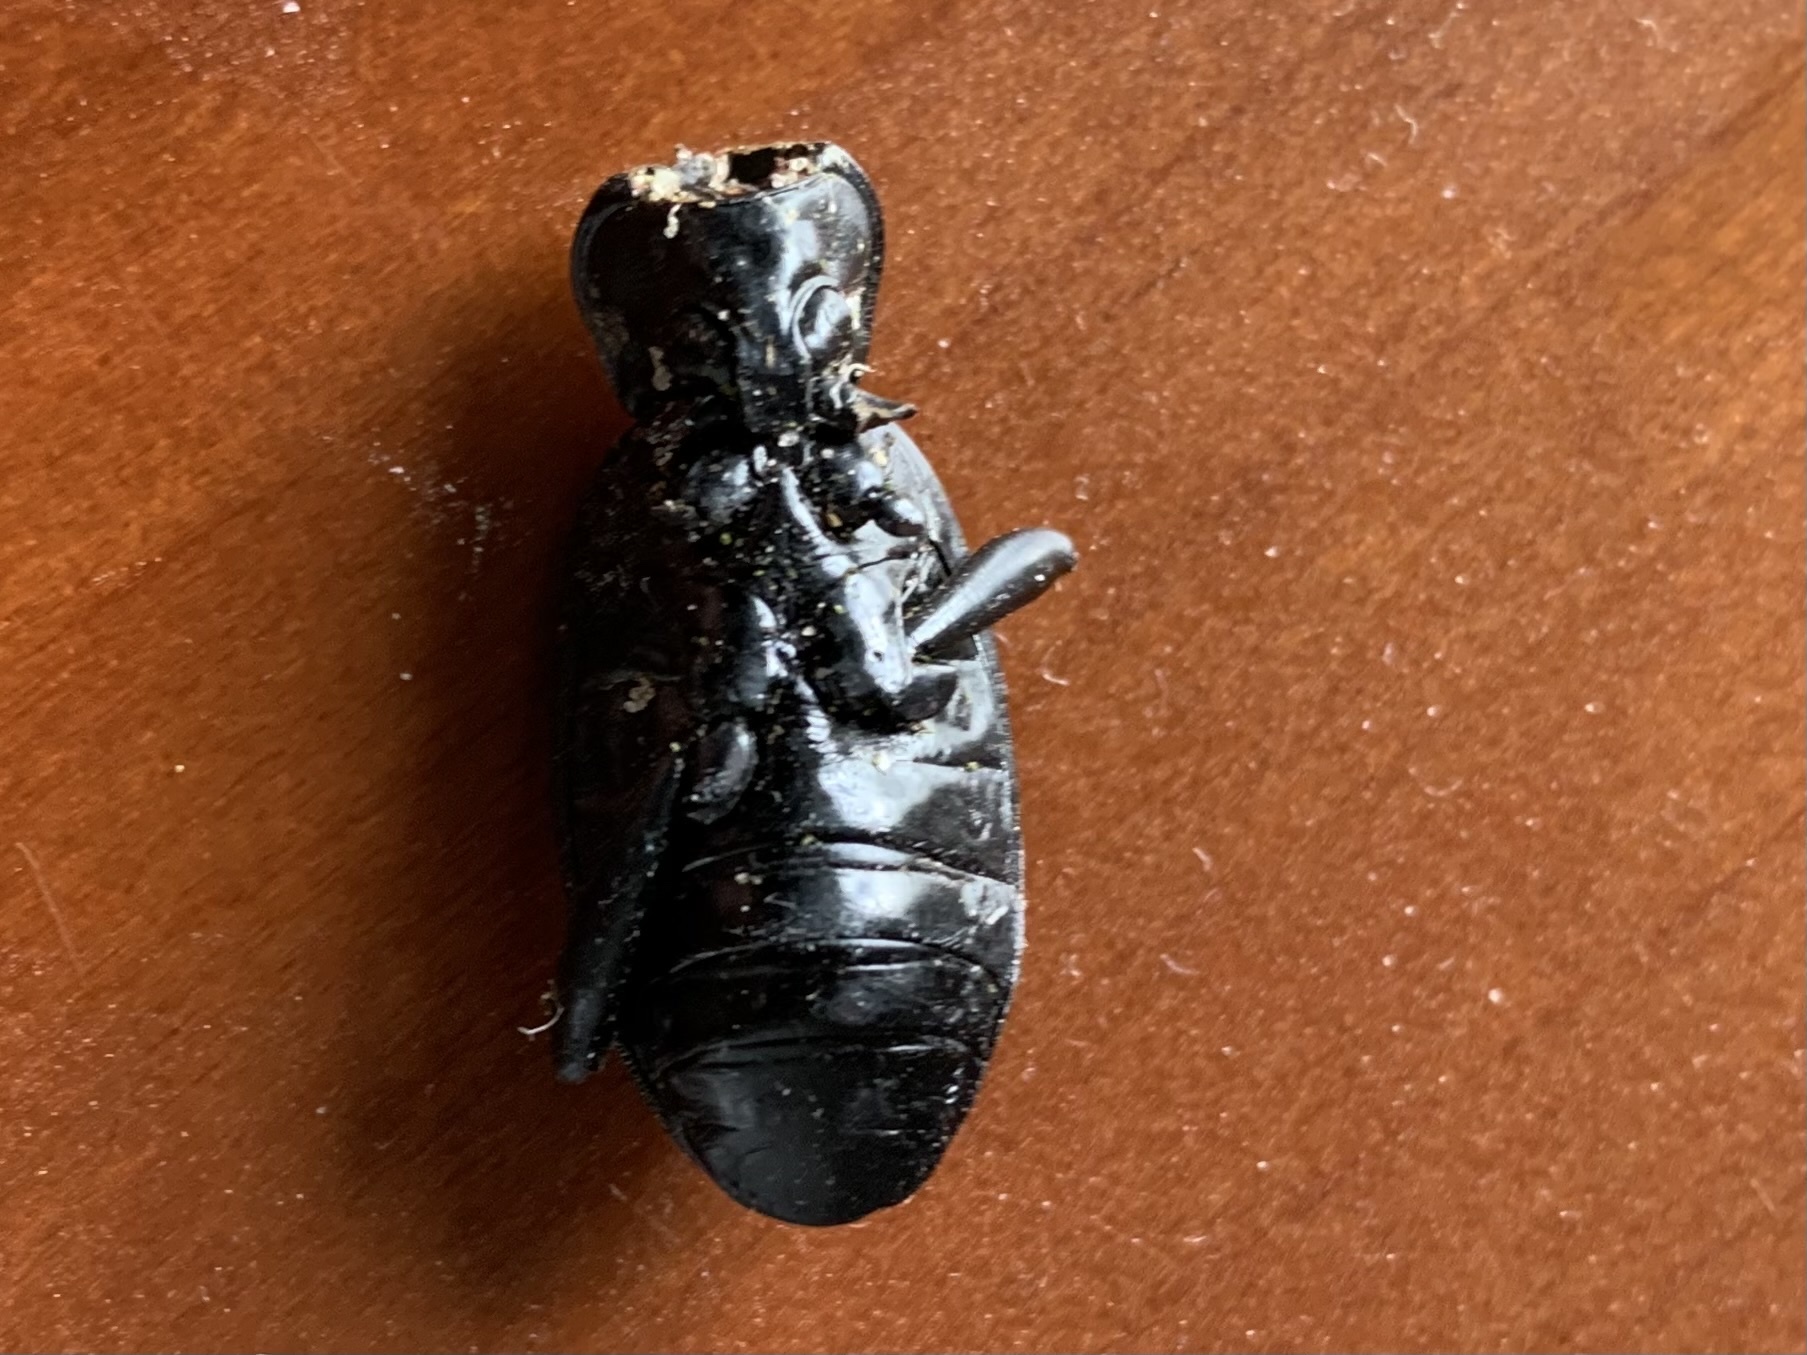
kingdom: Animalia
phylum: Arthropoda
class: Insecta
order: Coleoptera
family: Carabidae
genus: Carabus
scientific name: Carabus coriaceus
